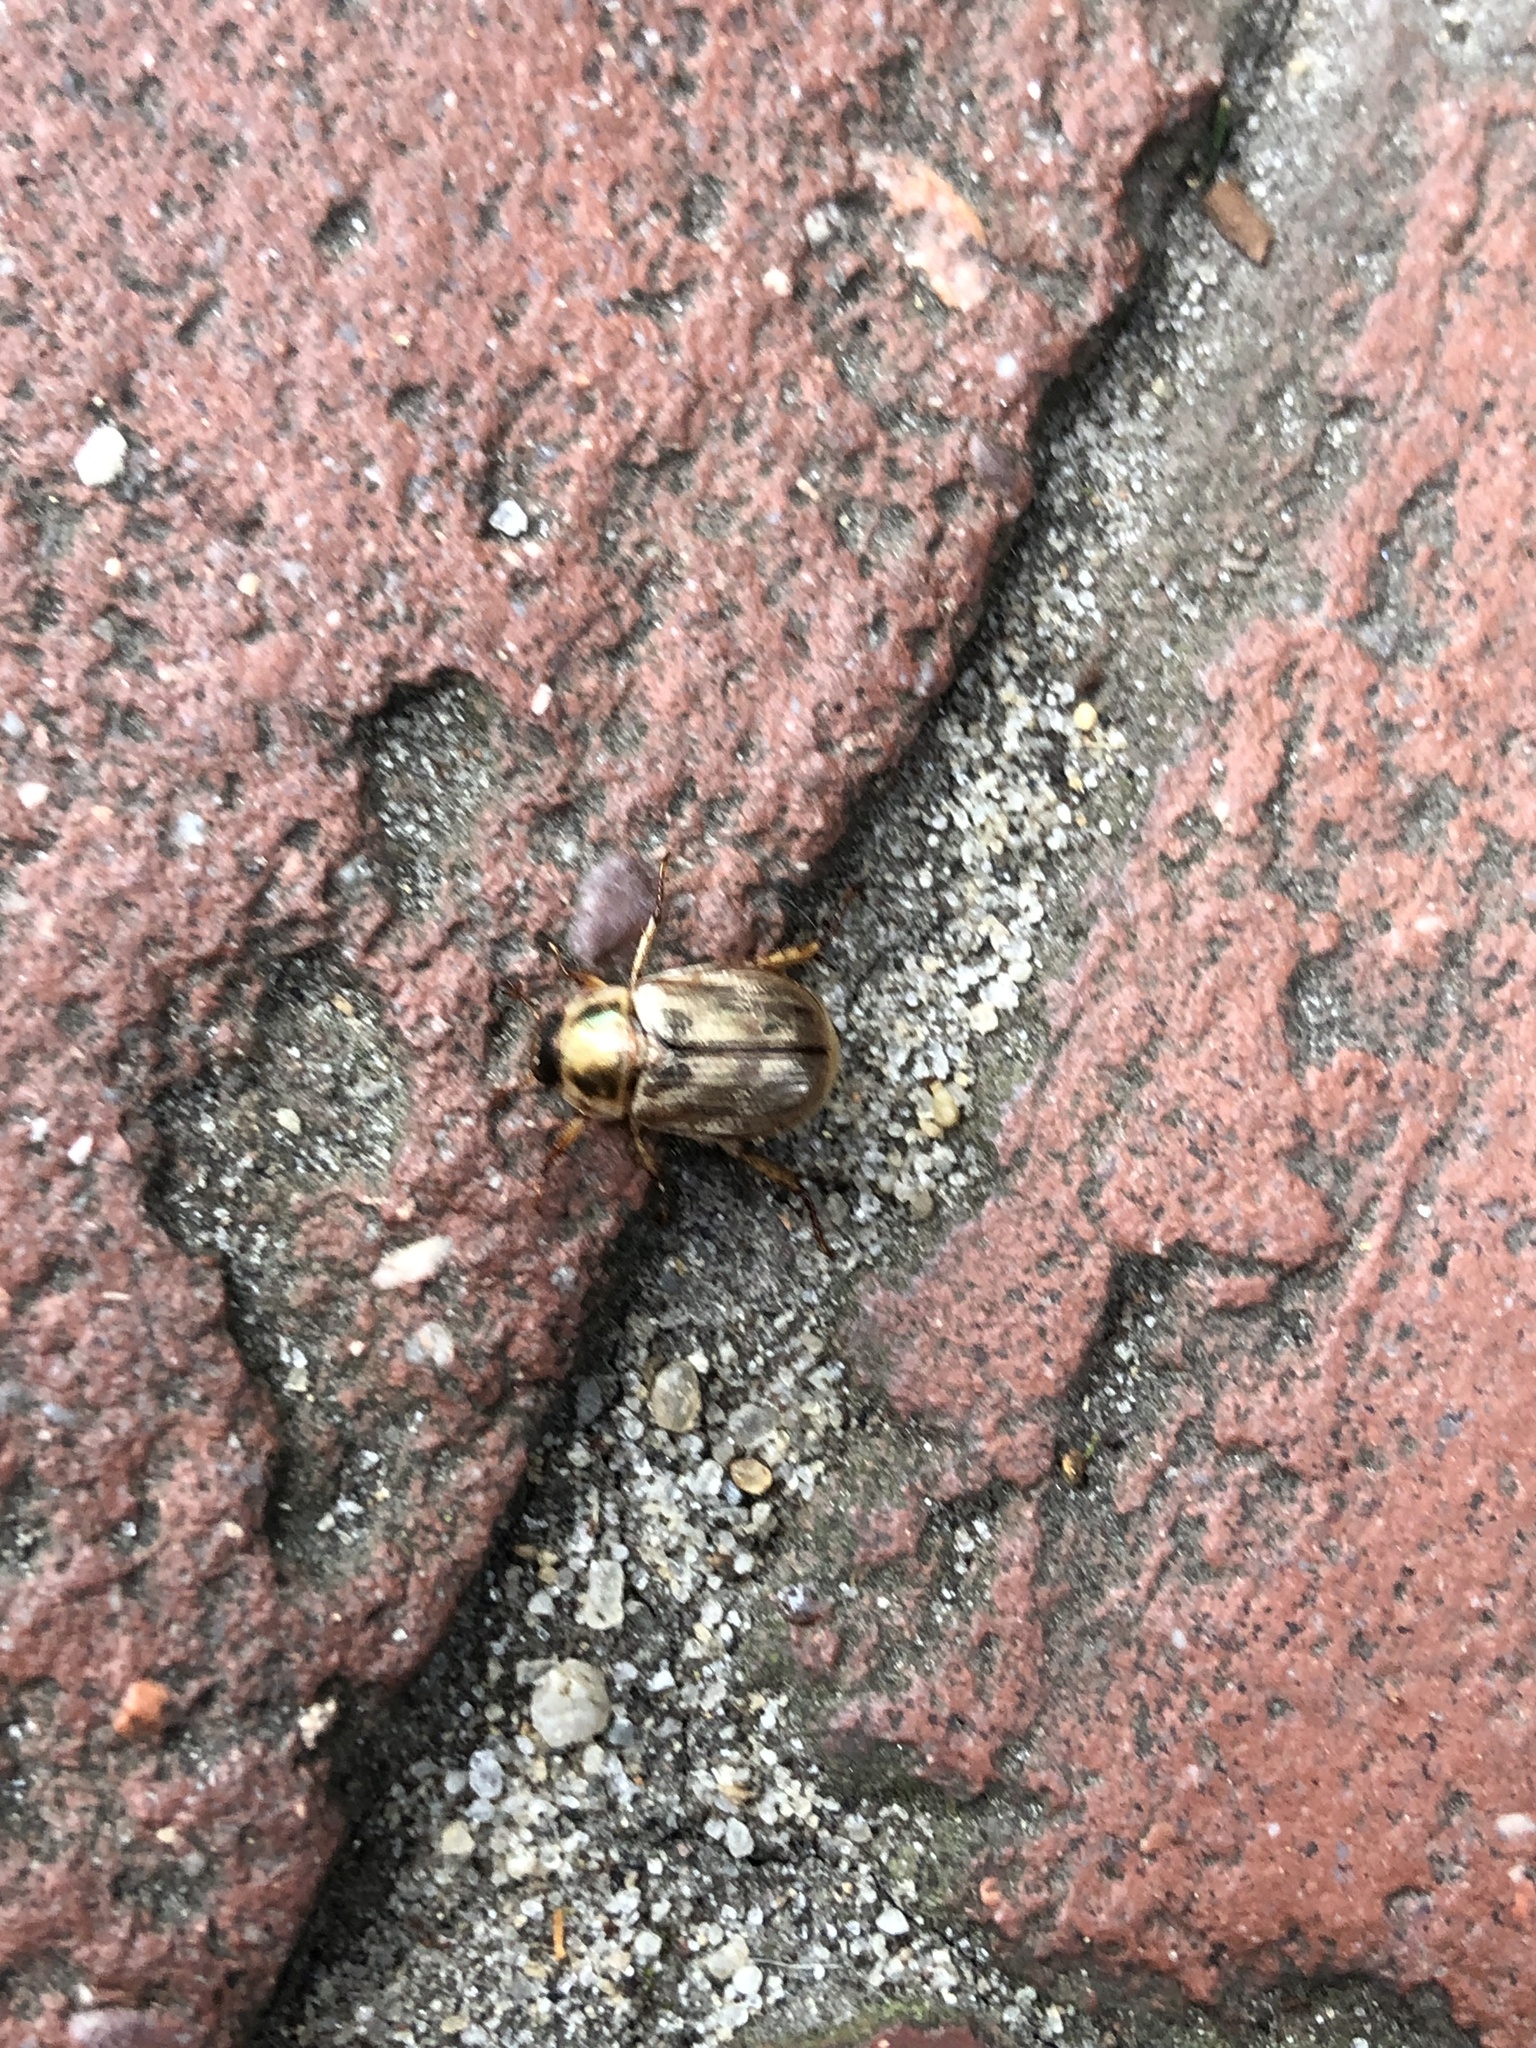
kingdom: Animalia
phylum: Arthropoda
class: Insecta
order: Coleoptera
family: Scarabaeidae
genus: Exomala
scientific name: Exomala orientalis
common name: Oriental beetle
